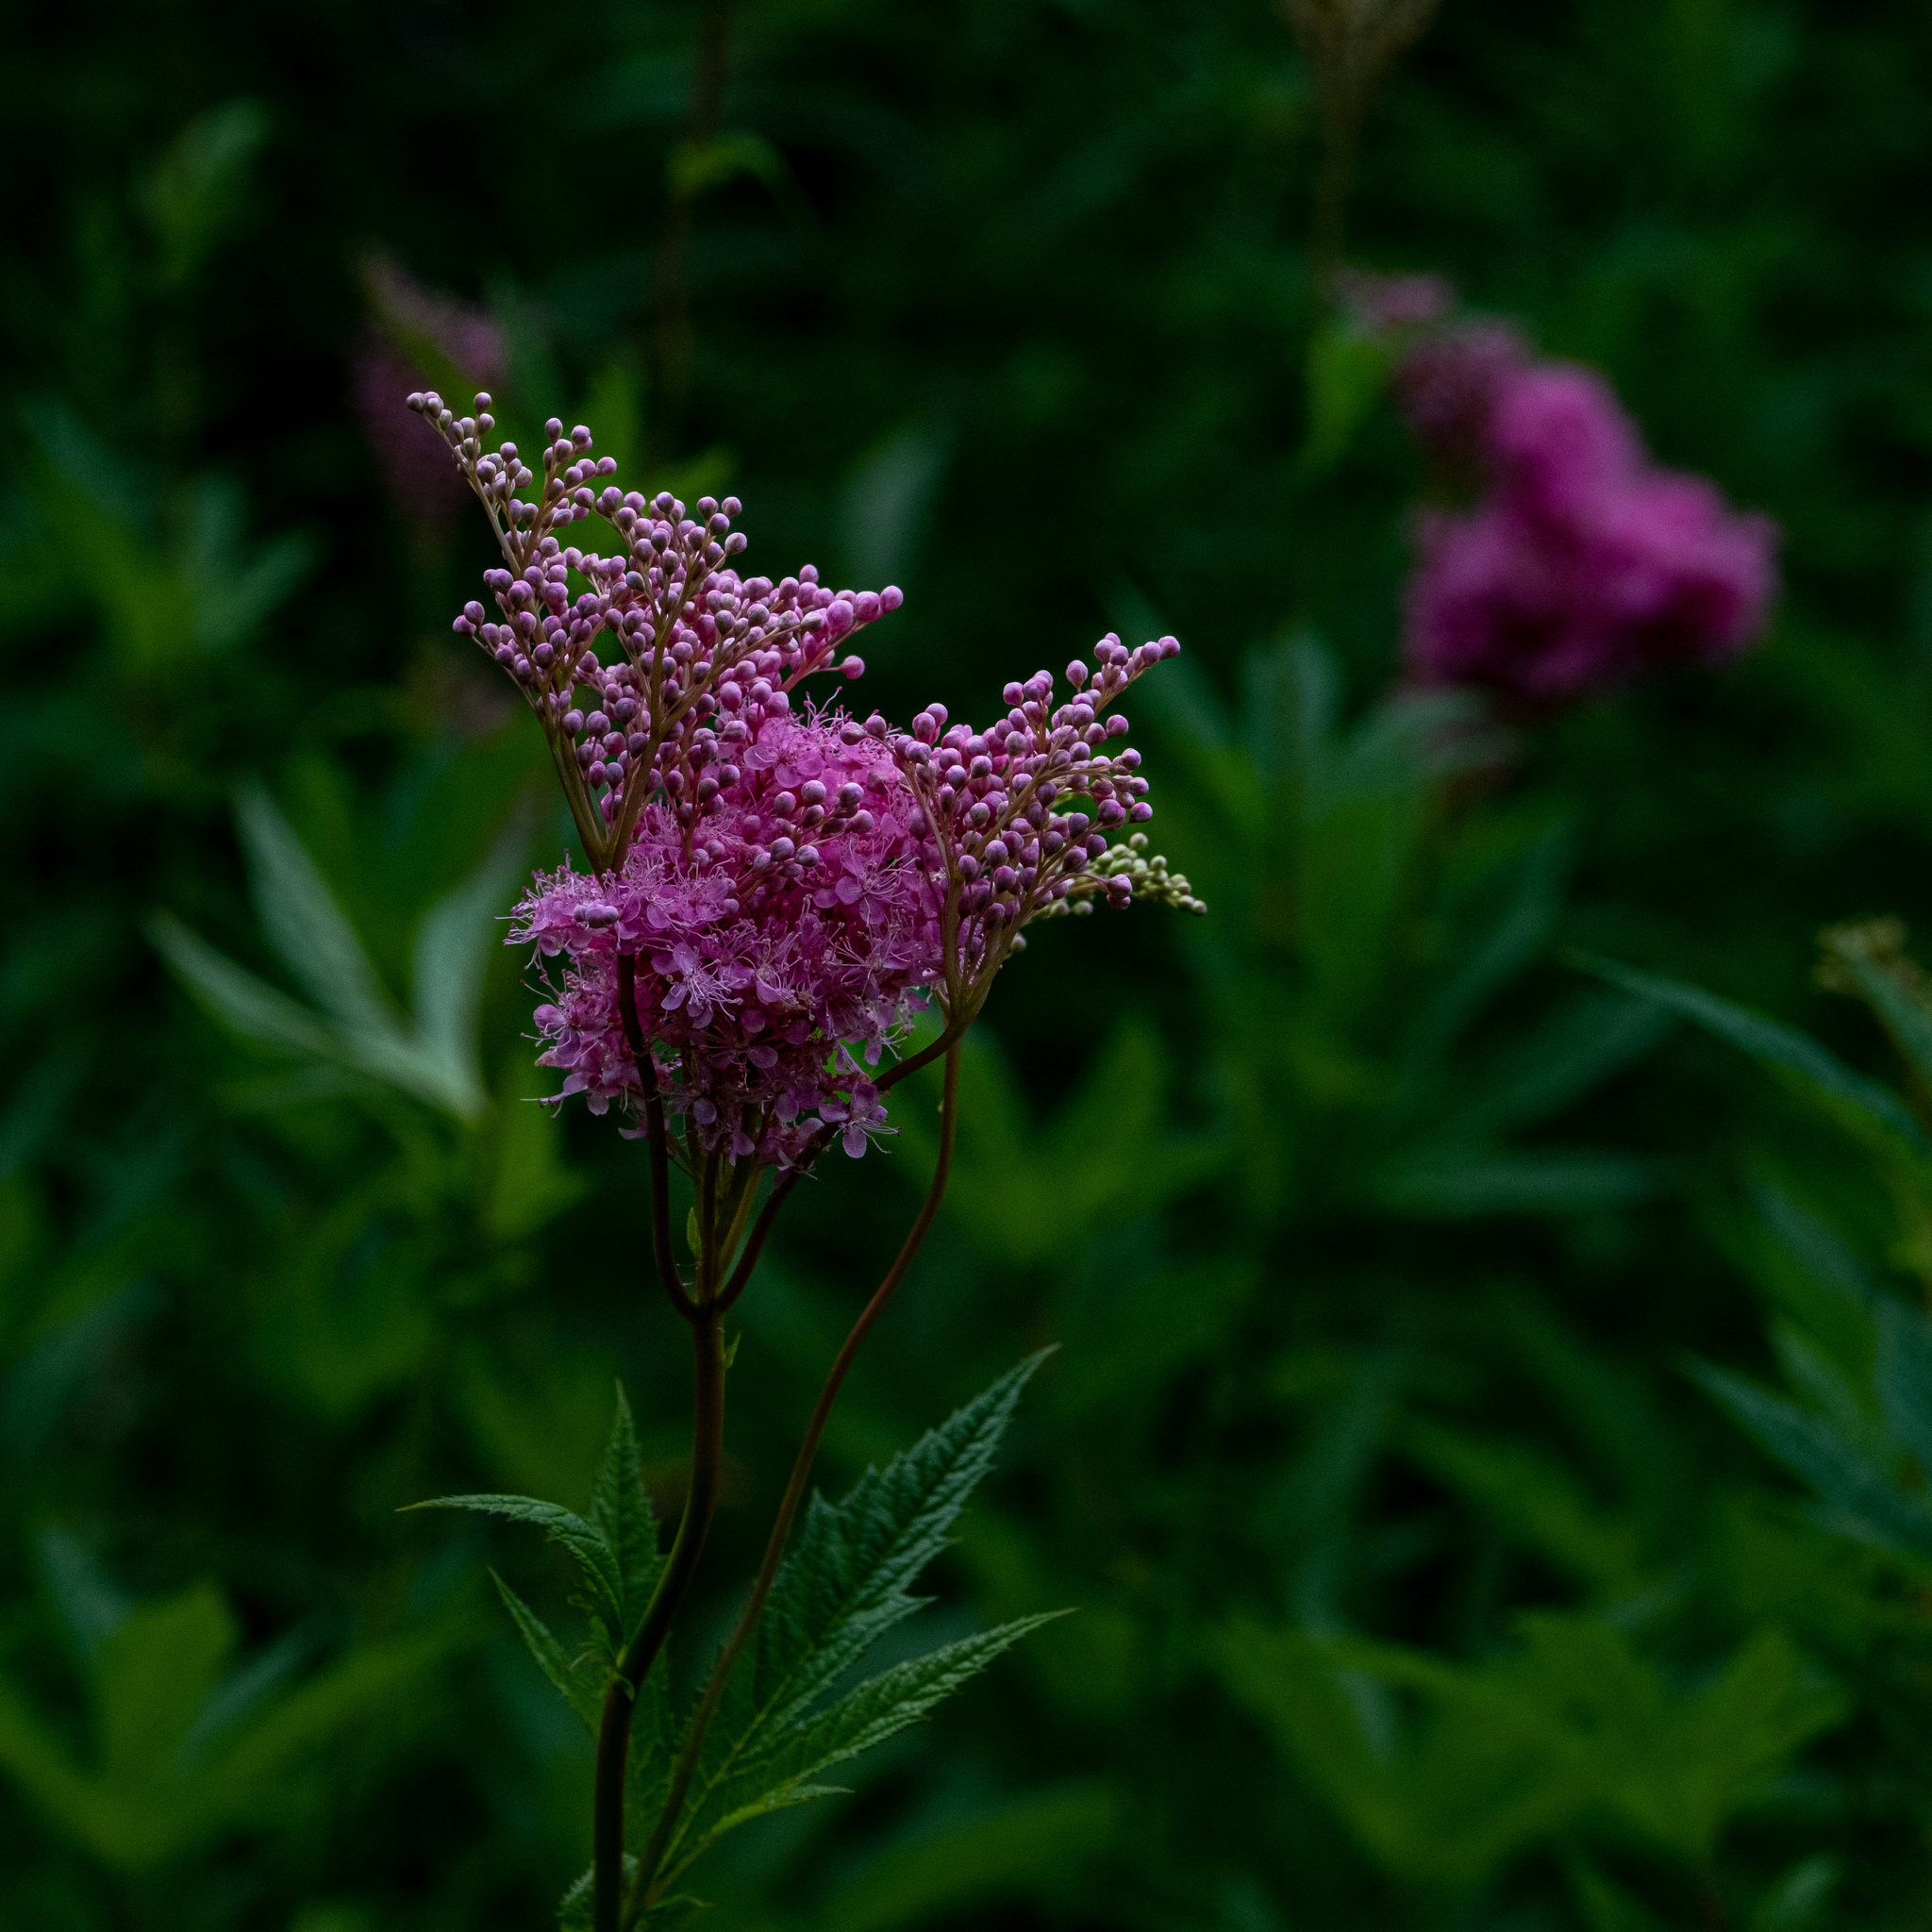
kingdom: Plantae
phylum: Tracheophyta
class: Magnoliopsida
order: Rosales
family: Rosaceae
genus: Filipendula
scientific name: Filipendula rubra
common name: Queen-of-the-prairie
